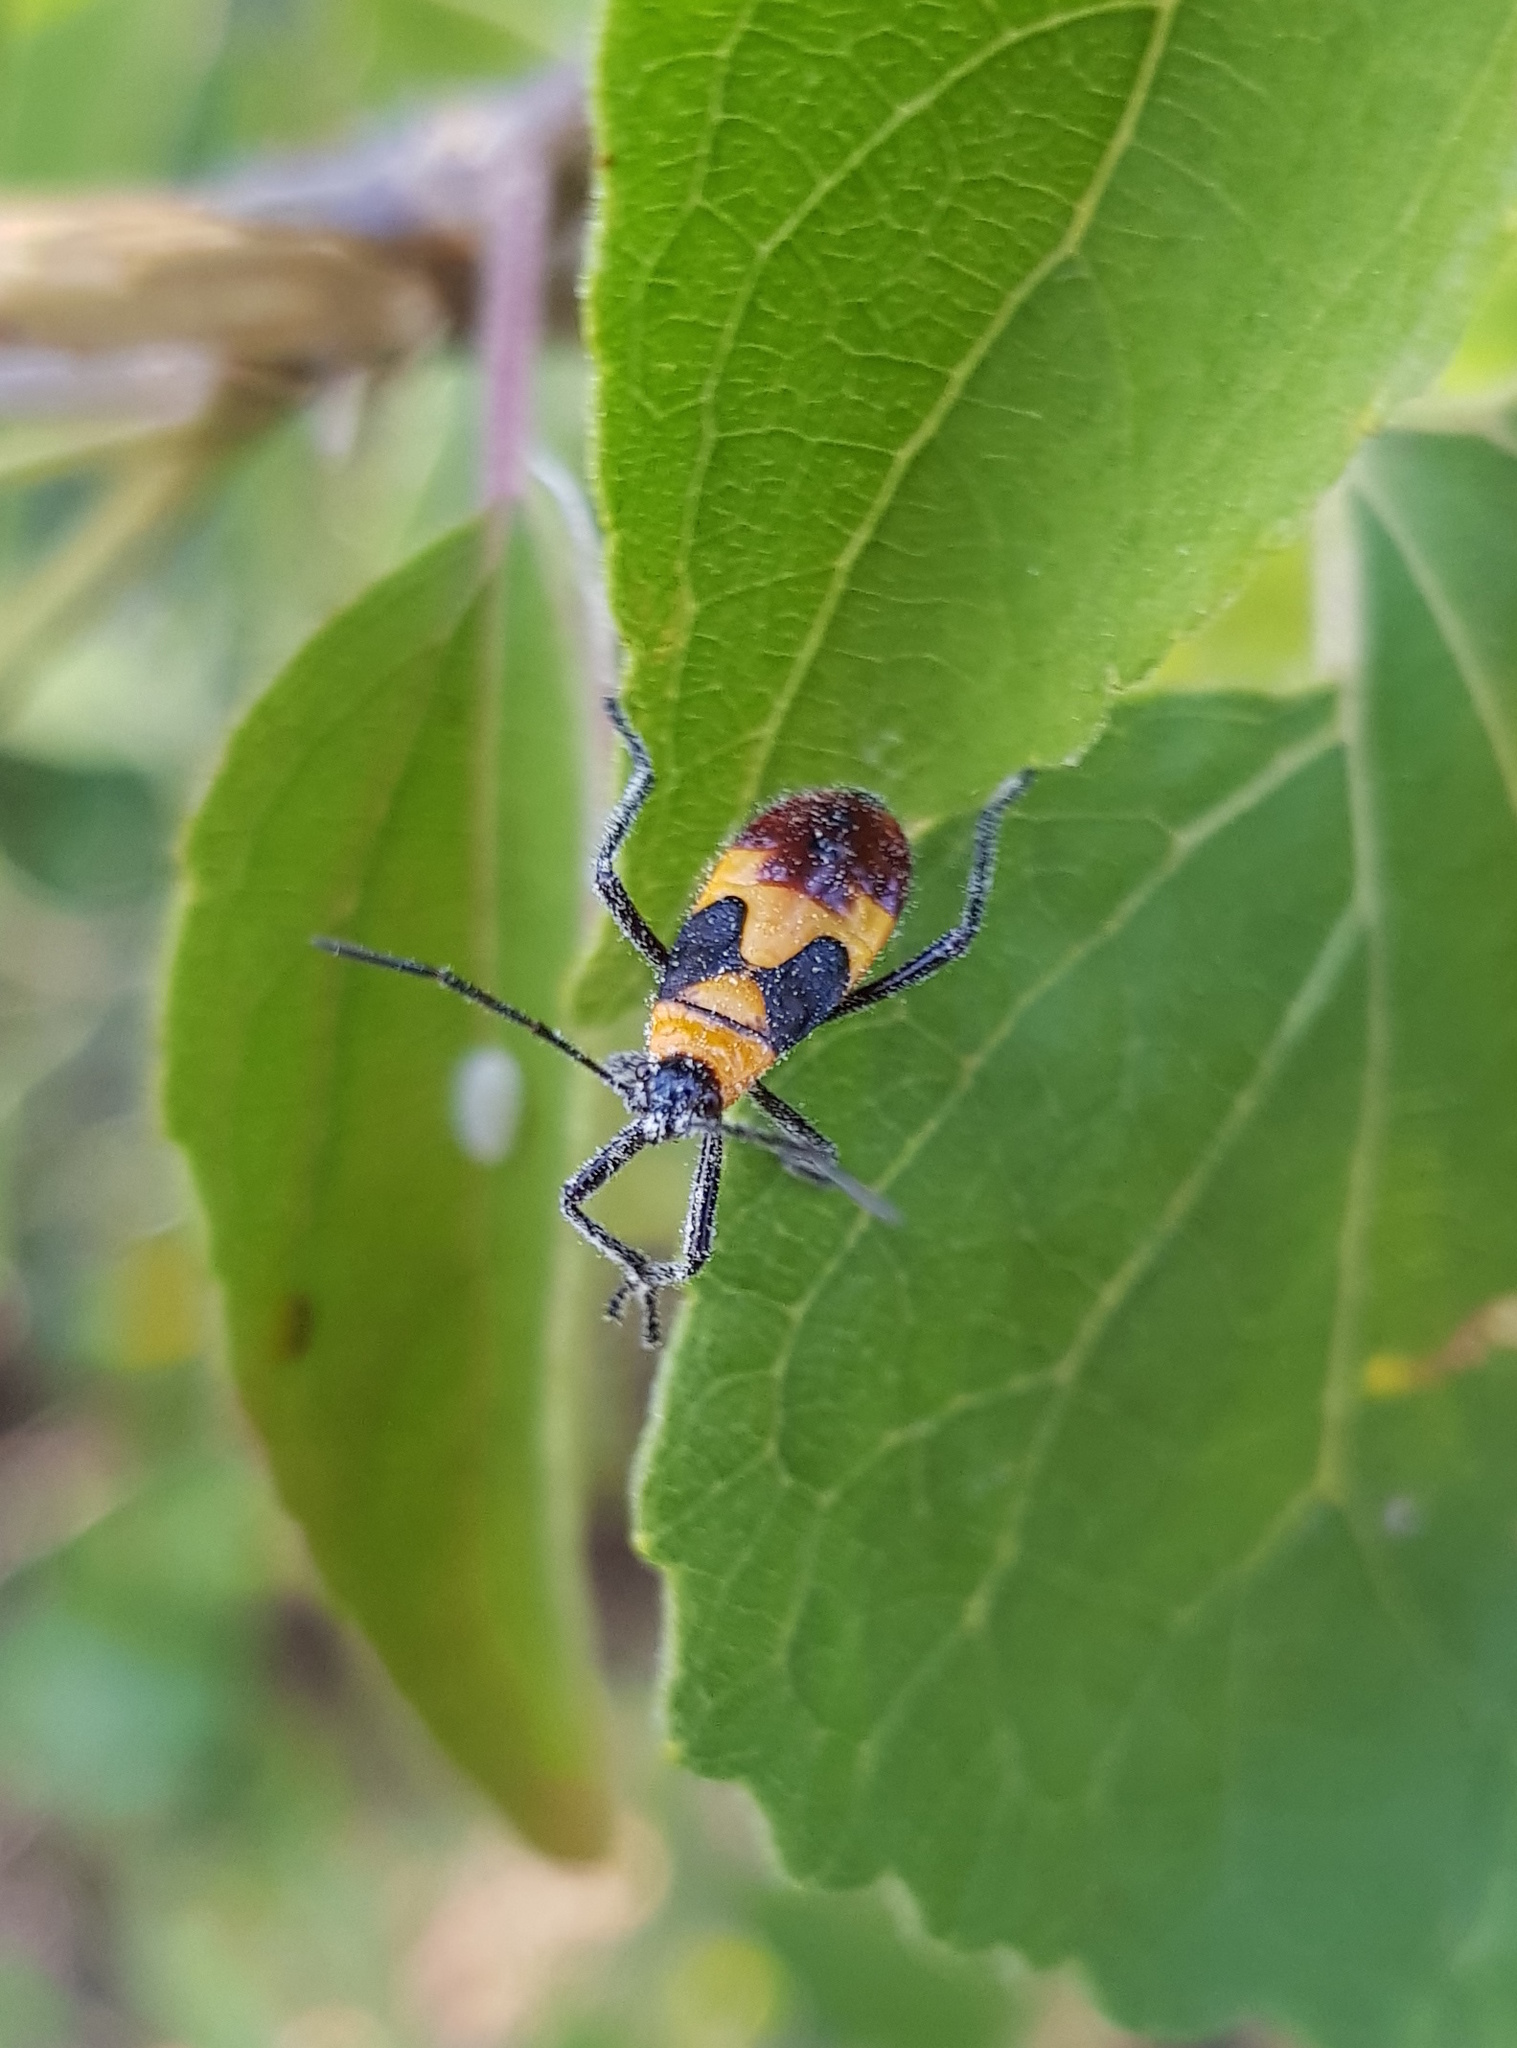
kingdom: Animalia
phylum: Arthropoda
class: Insecta
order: Hemiptera
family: Lygaeidae
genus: Oncopeltus
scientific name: Oncopeltus sexmaculatus
